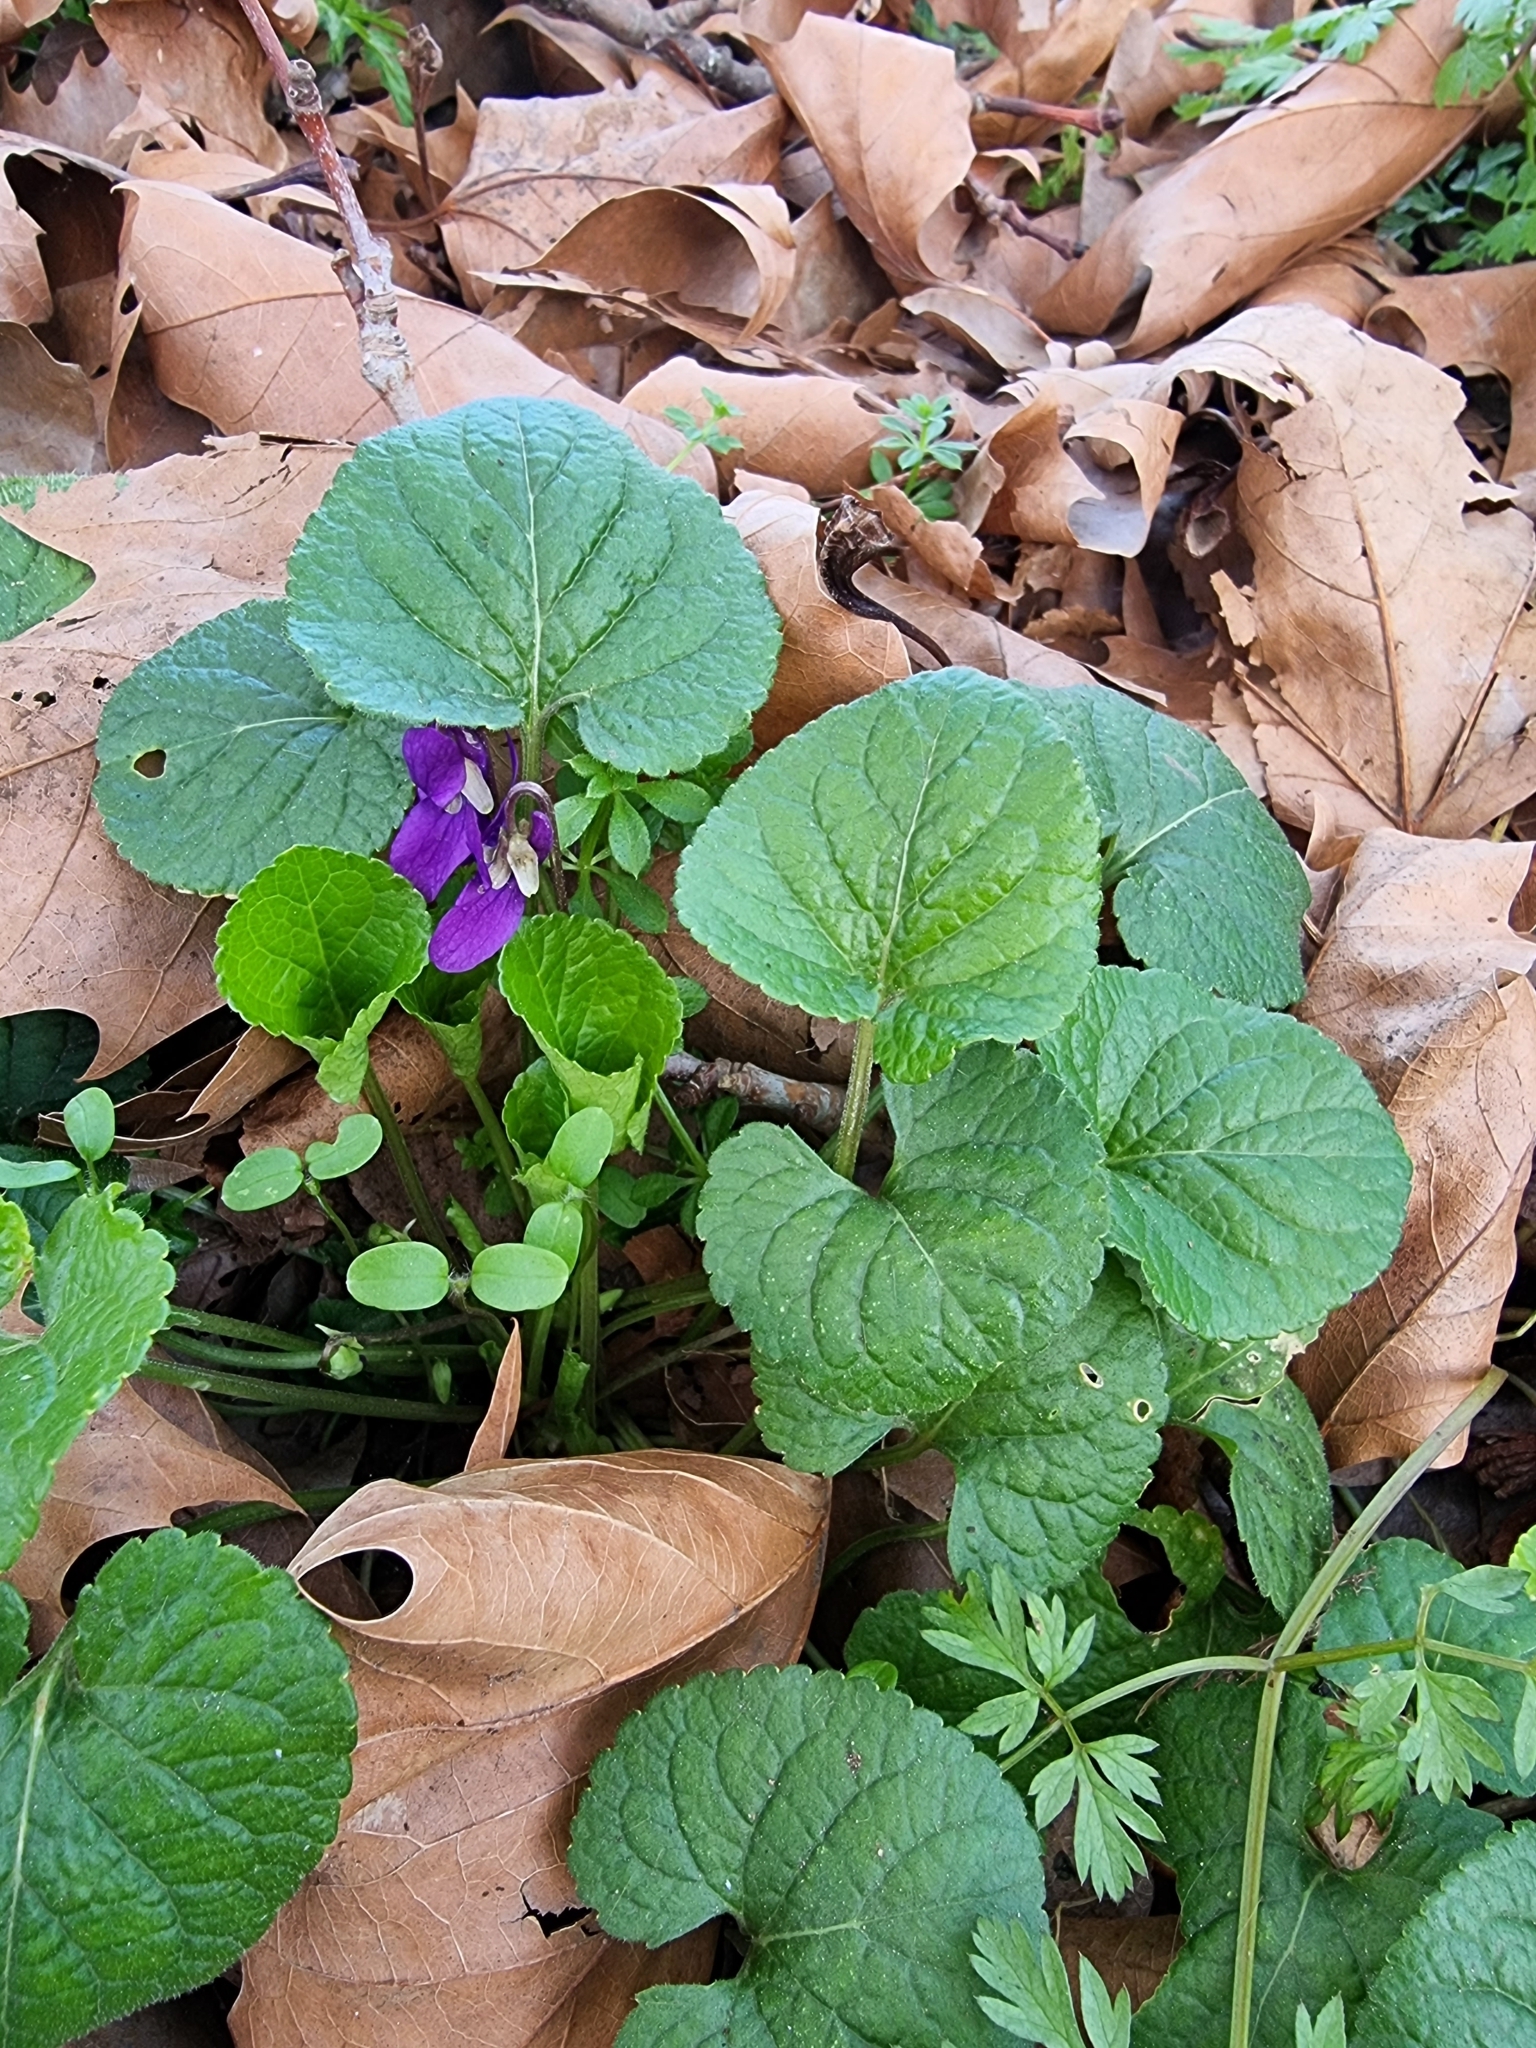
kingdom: Plantae
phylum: Tracheophyta
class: Magnoliopsida
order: Malpighiales
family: Violaceae
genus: Viola
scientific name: Viola odorata
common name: Sweet violet
